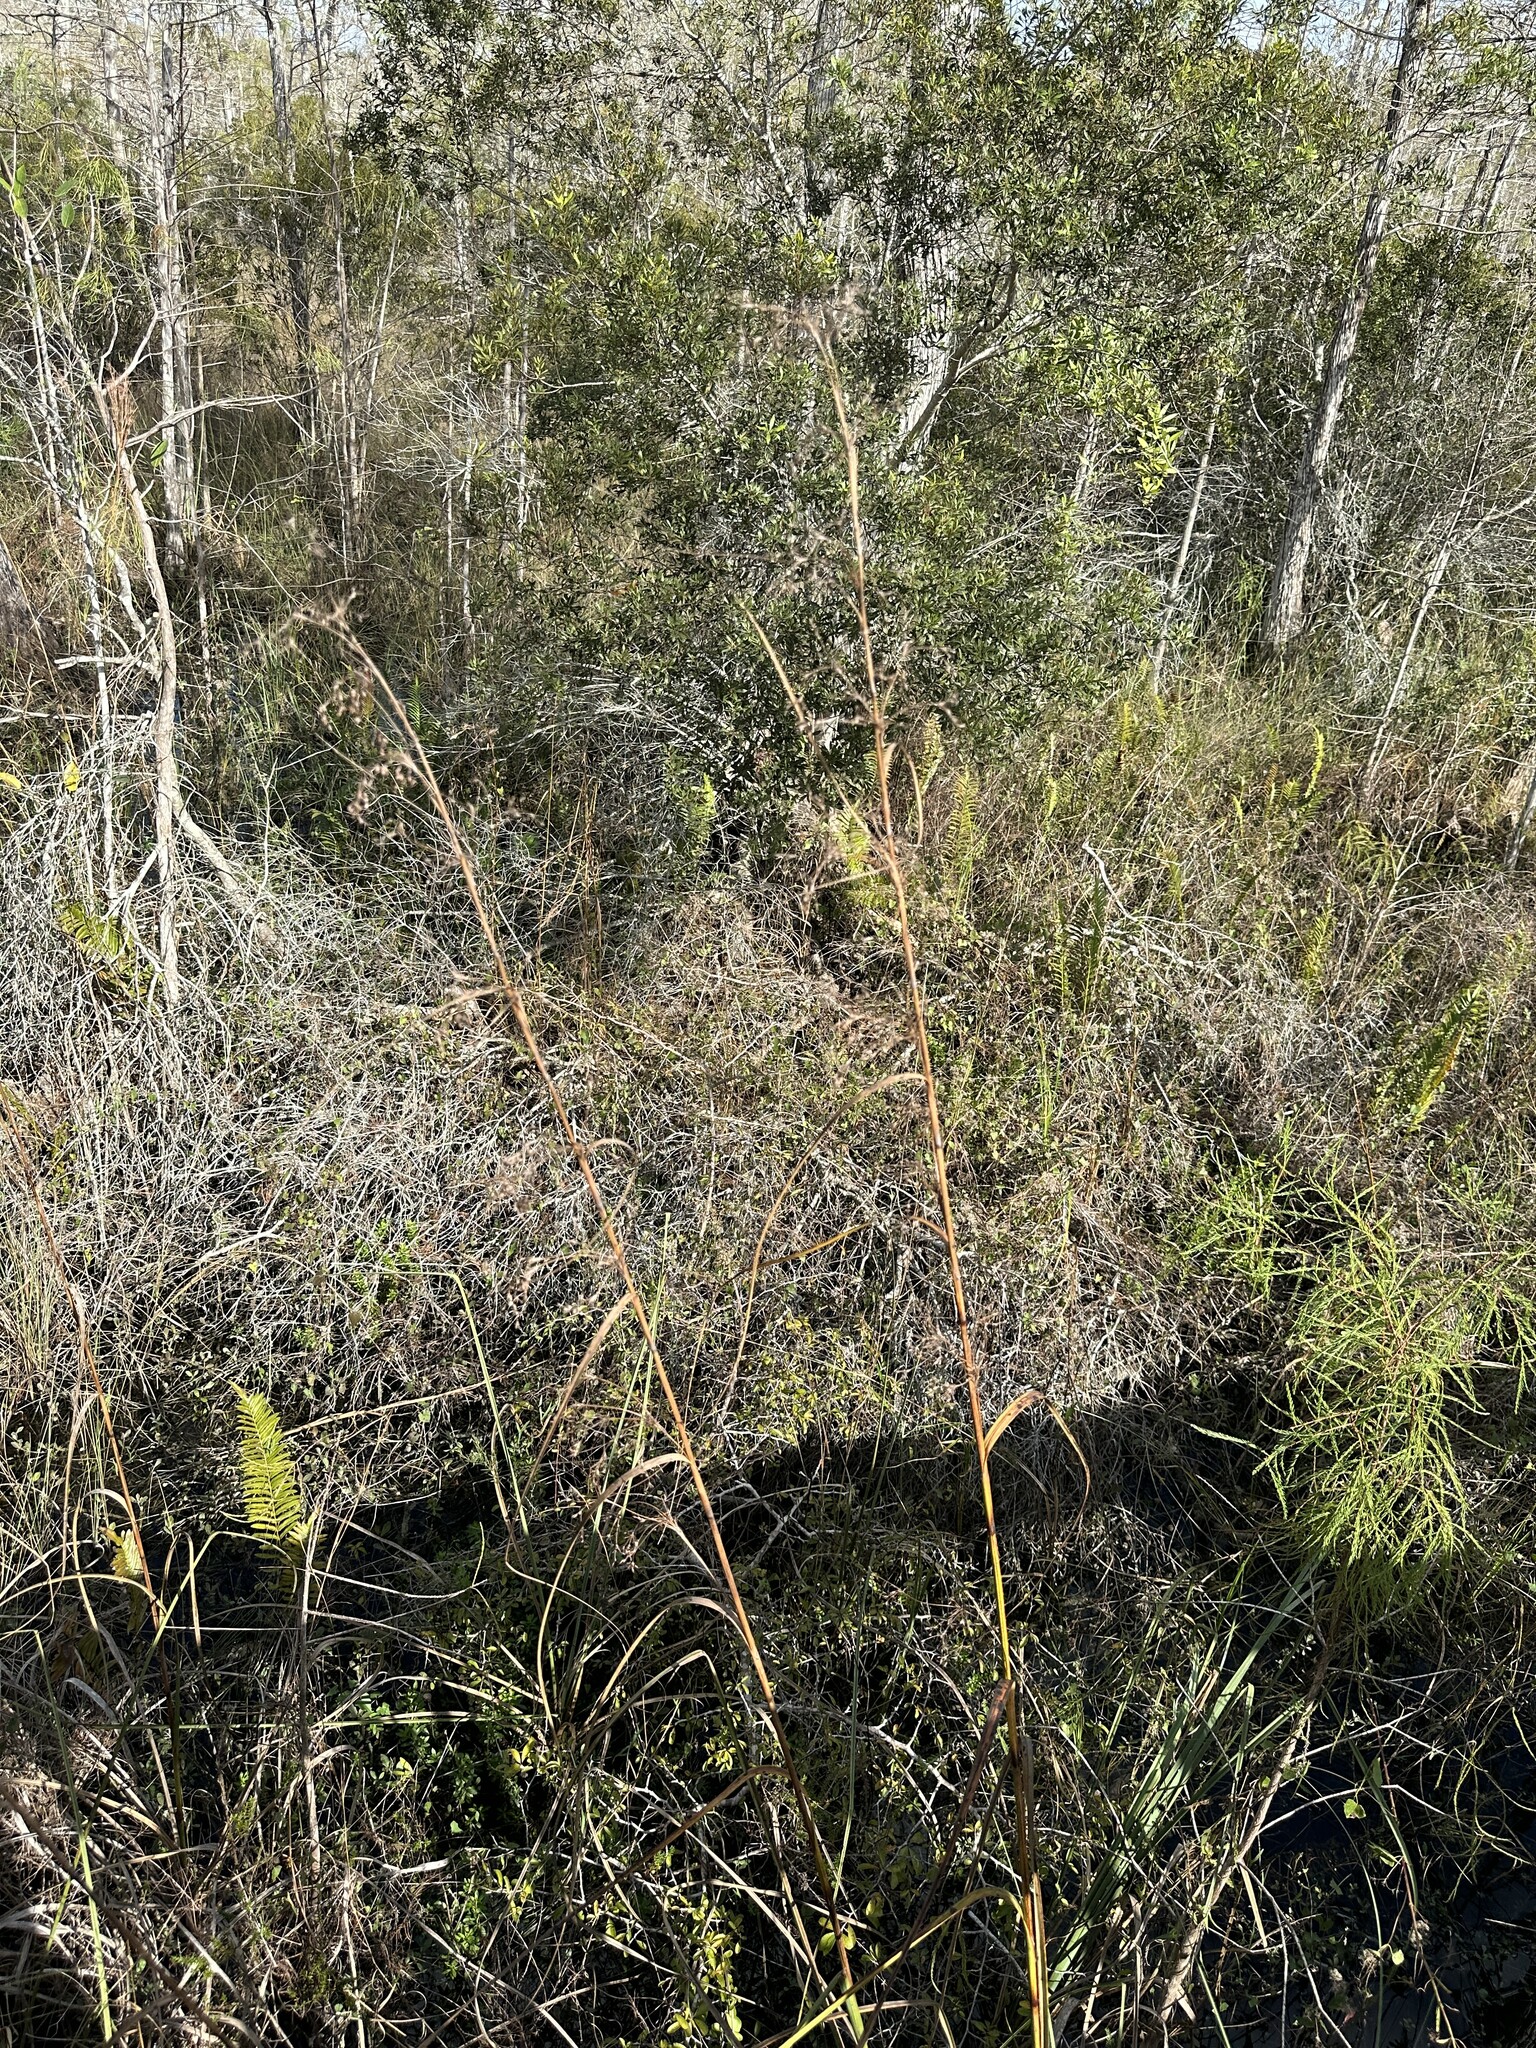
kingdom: Plantae
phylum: Tracheophyta
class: Liliopsida
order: Poales
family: Cyperaceae
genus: Cladium
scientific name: Cladium mariscus
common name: Great fen-sedge
